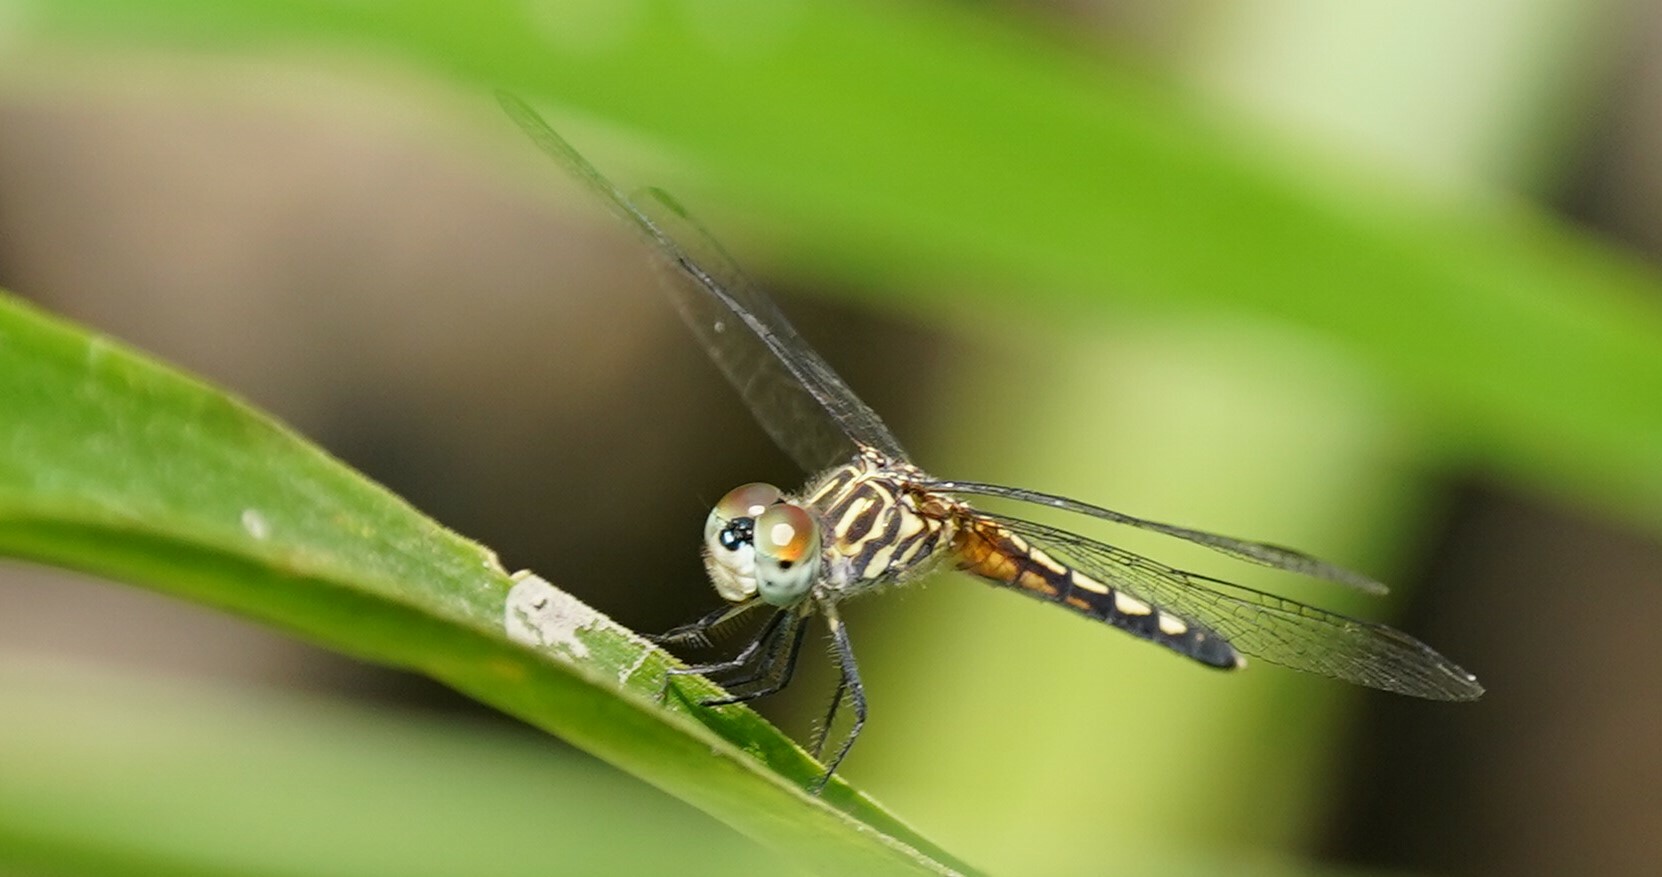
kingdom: Animalia
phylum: Arthropoda
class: Insecta
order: Odonata
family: Libellulidae
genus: Pachydiplax
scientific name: Pachydiplax longipennis
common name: Blue dasher
